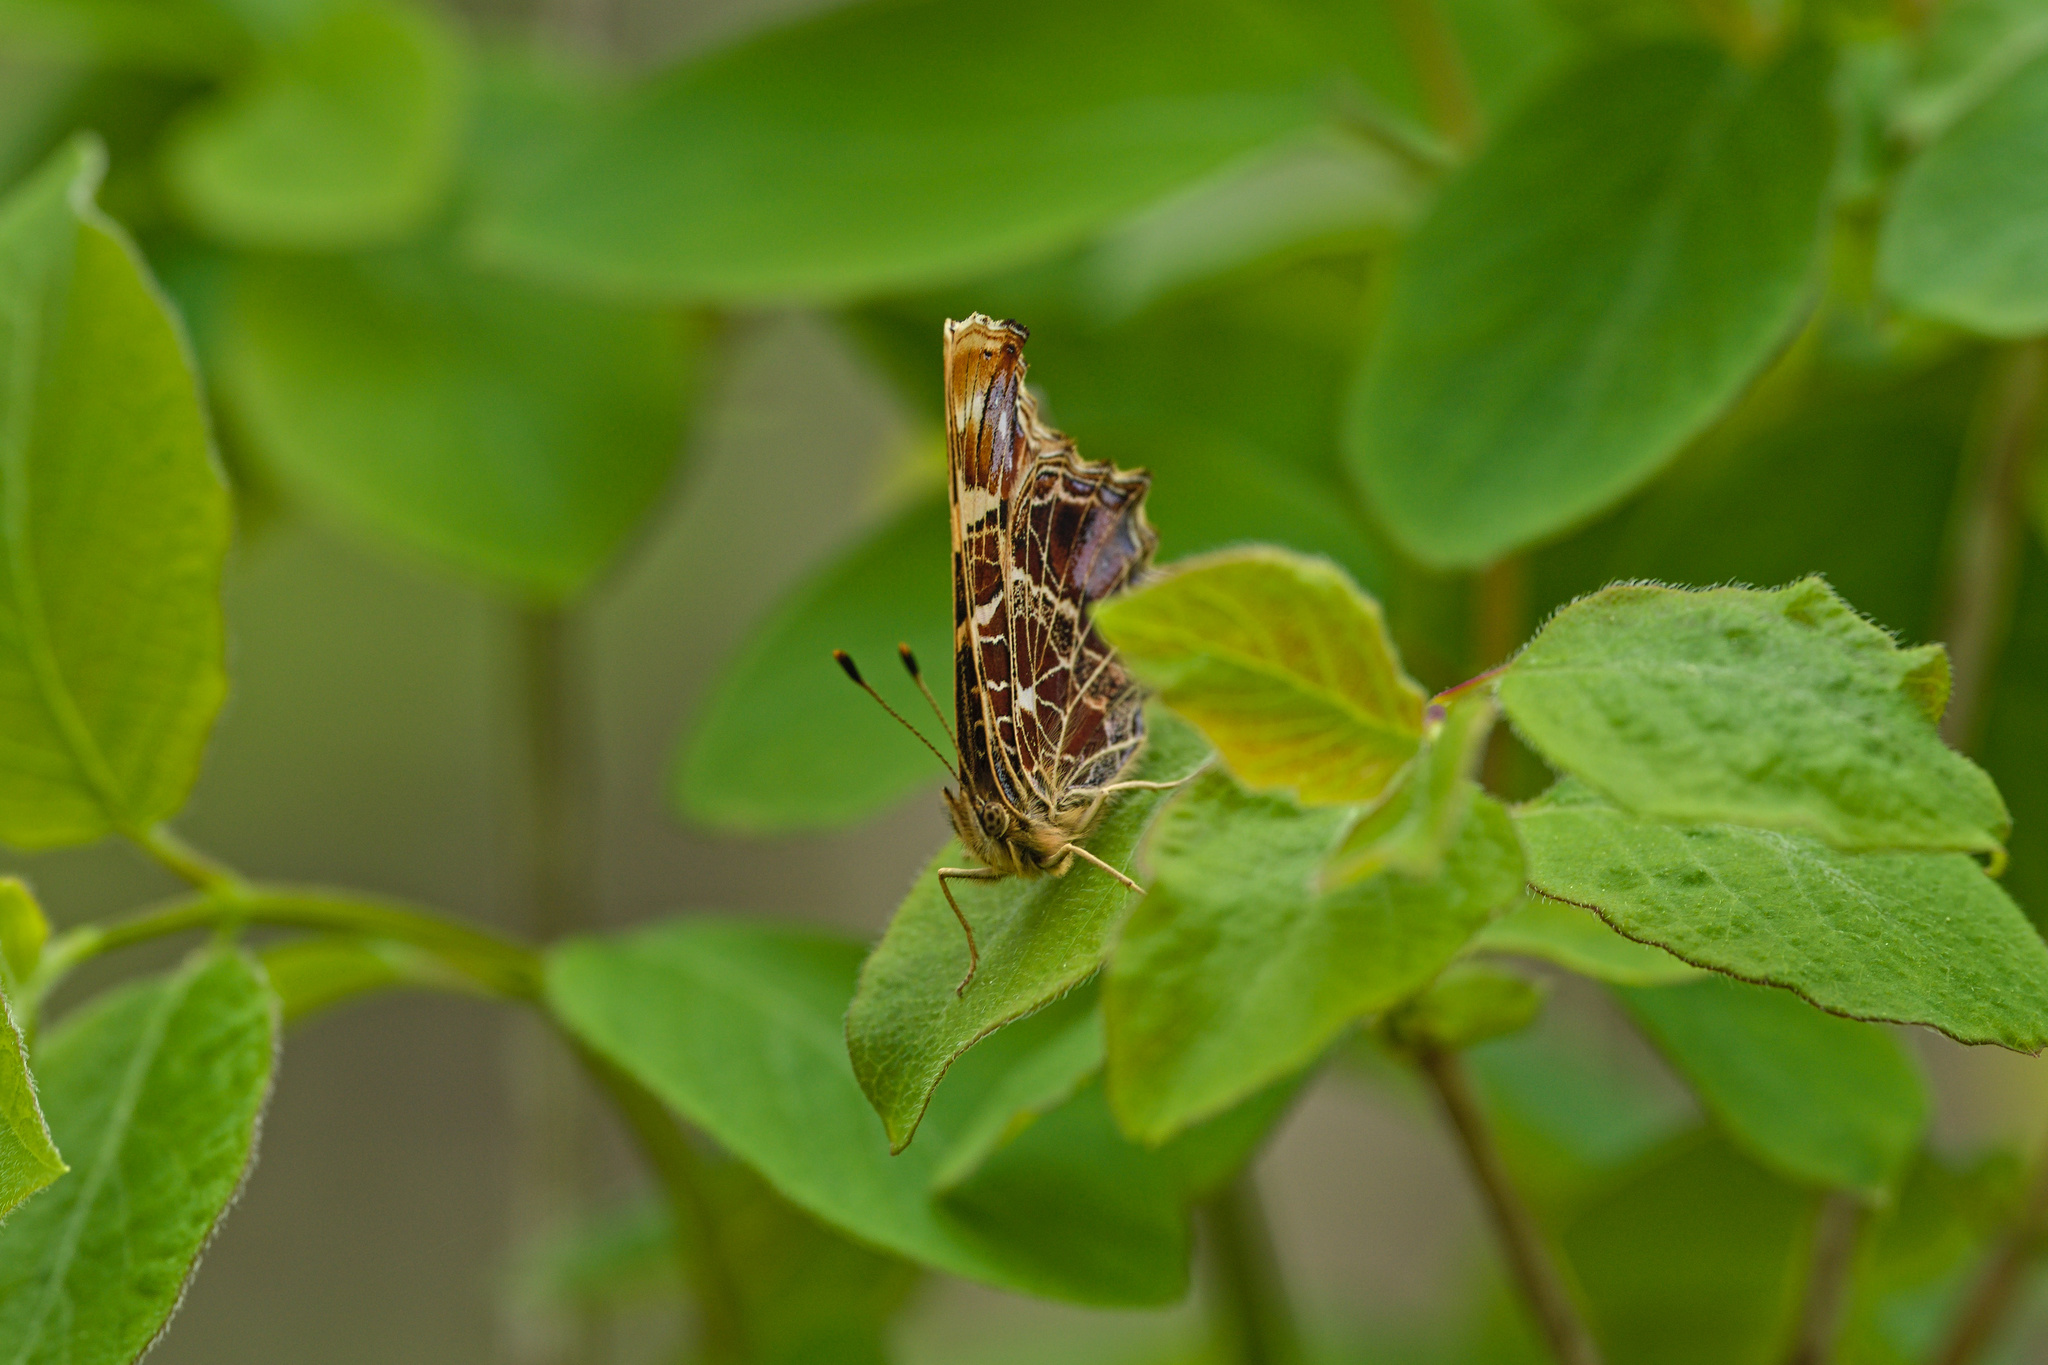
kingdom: Animalia
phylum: Arthropoda
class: Insecta
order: Lepidoptera
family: Nymphalidae
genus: Araschnia
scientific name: Araschnia levana
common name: Map butterfly
